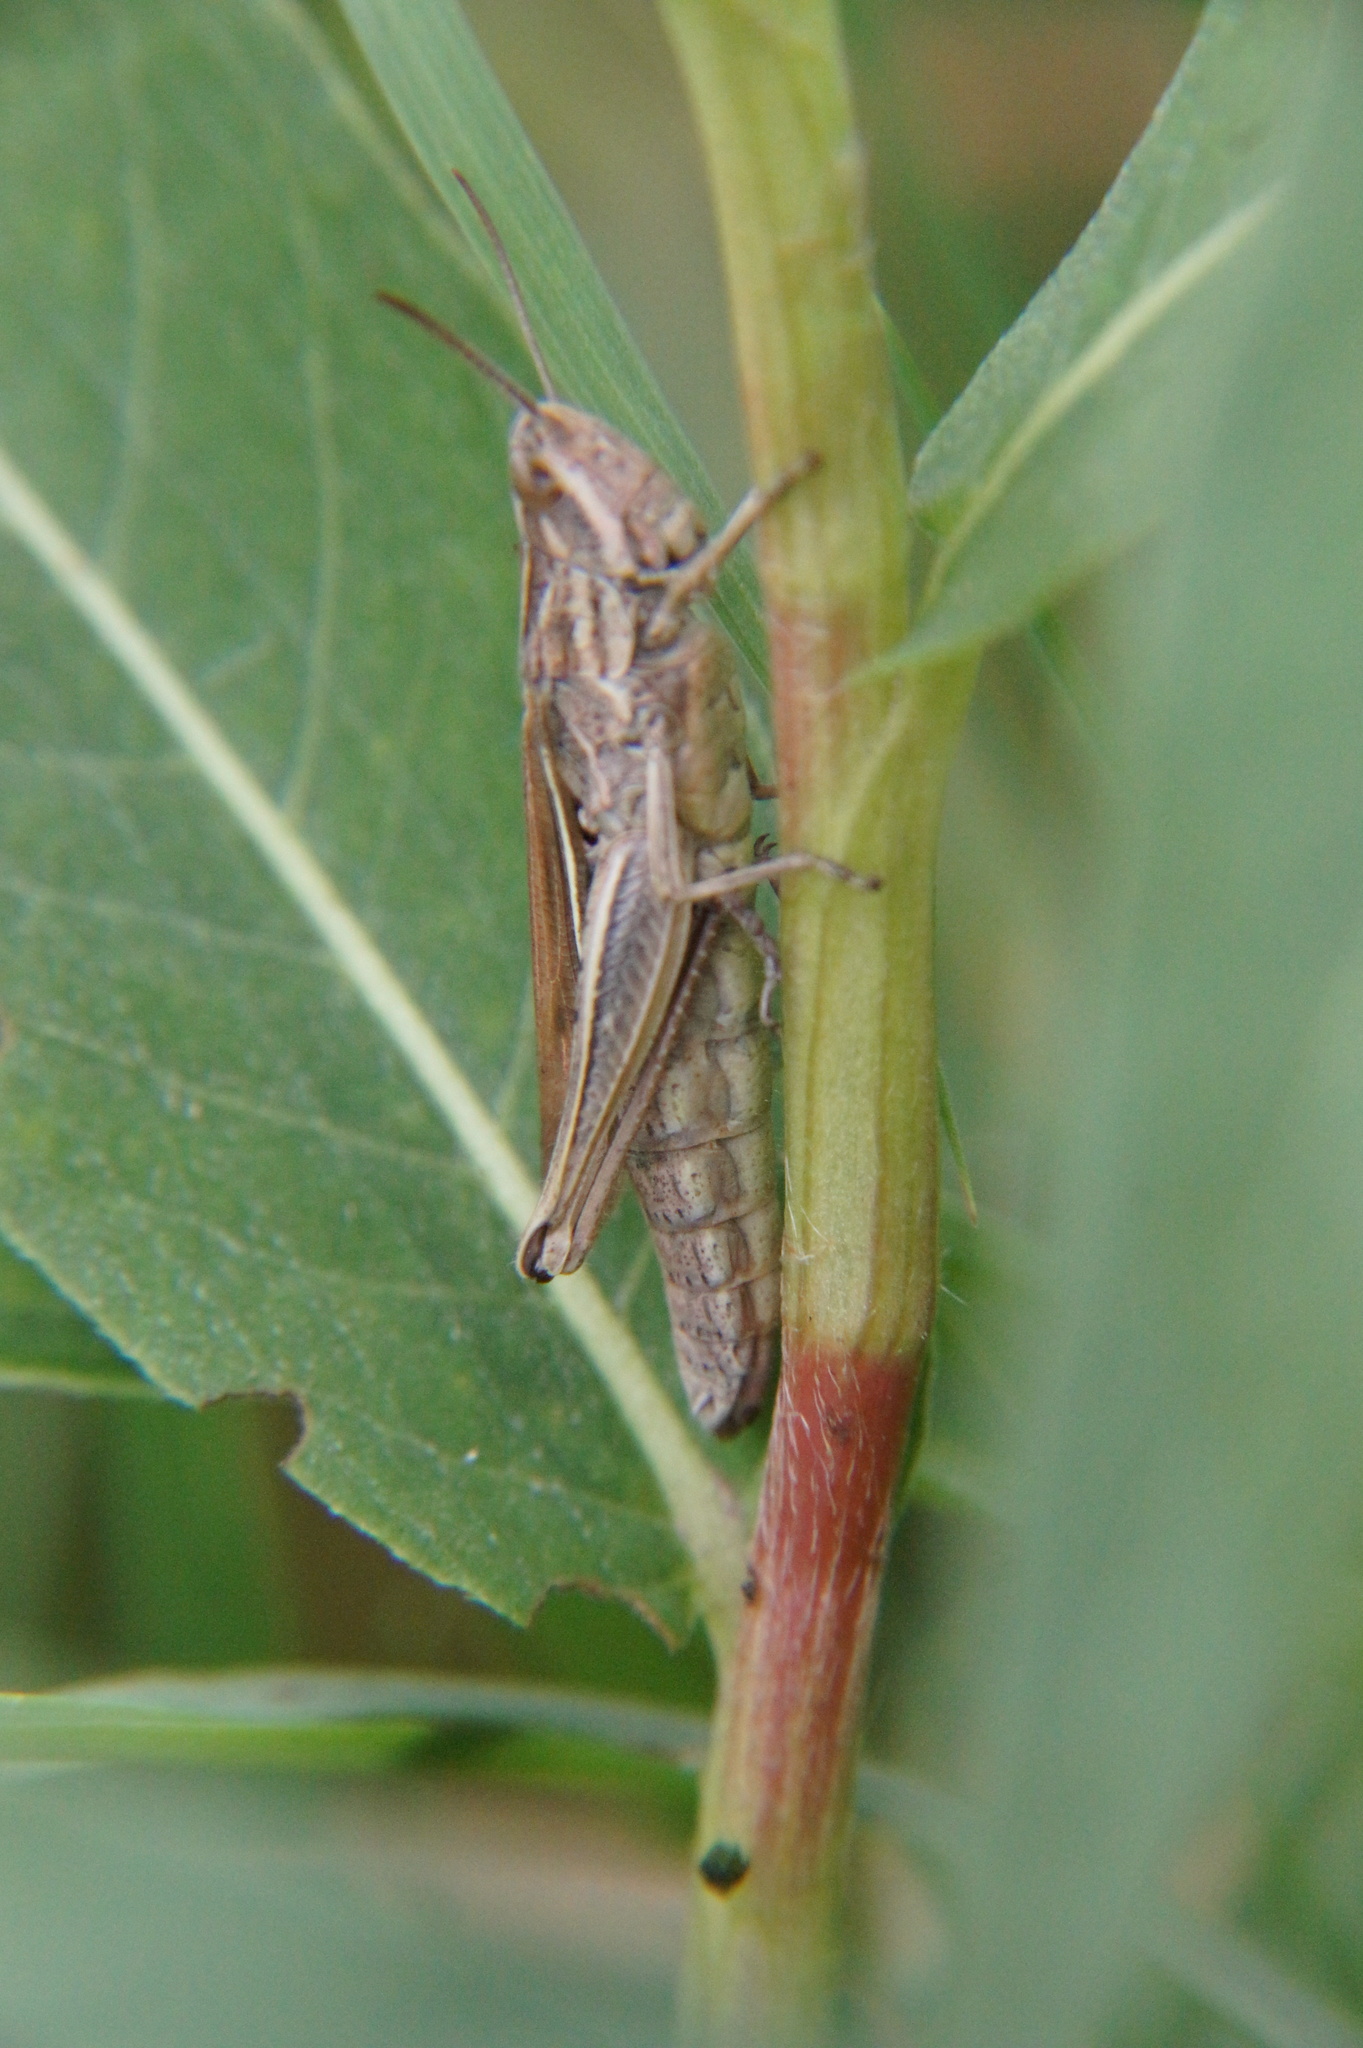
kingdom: Animalia
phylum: Arthropoda
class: Insecta
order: Orthoptera
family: Acrididae
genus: Chorthippus
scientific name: Chorthippus albomarginatus
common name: Lesser marsh grasshopper
